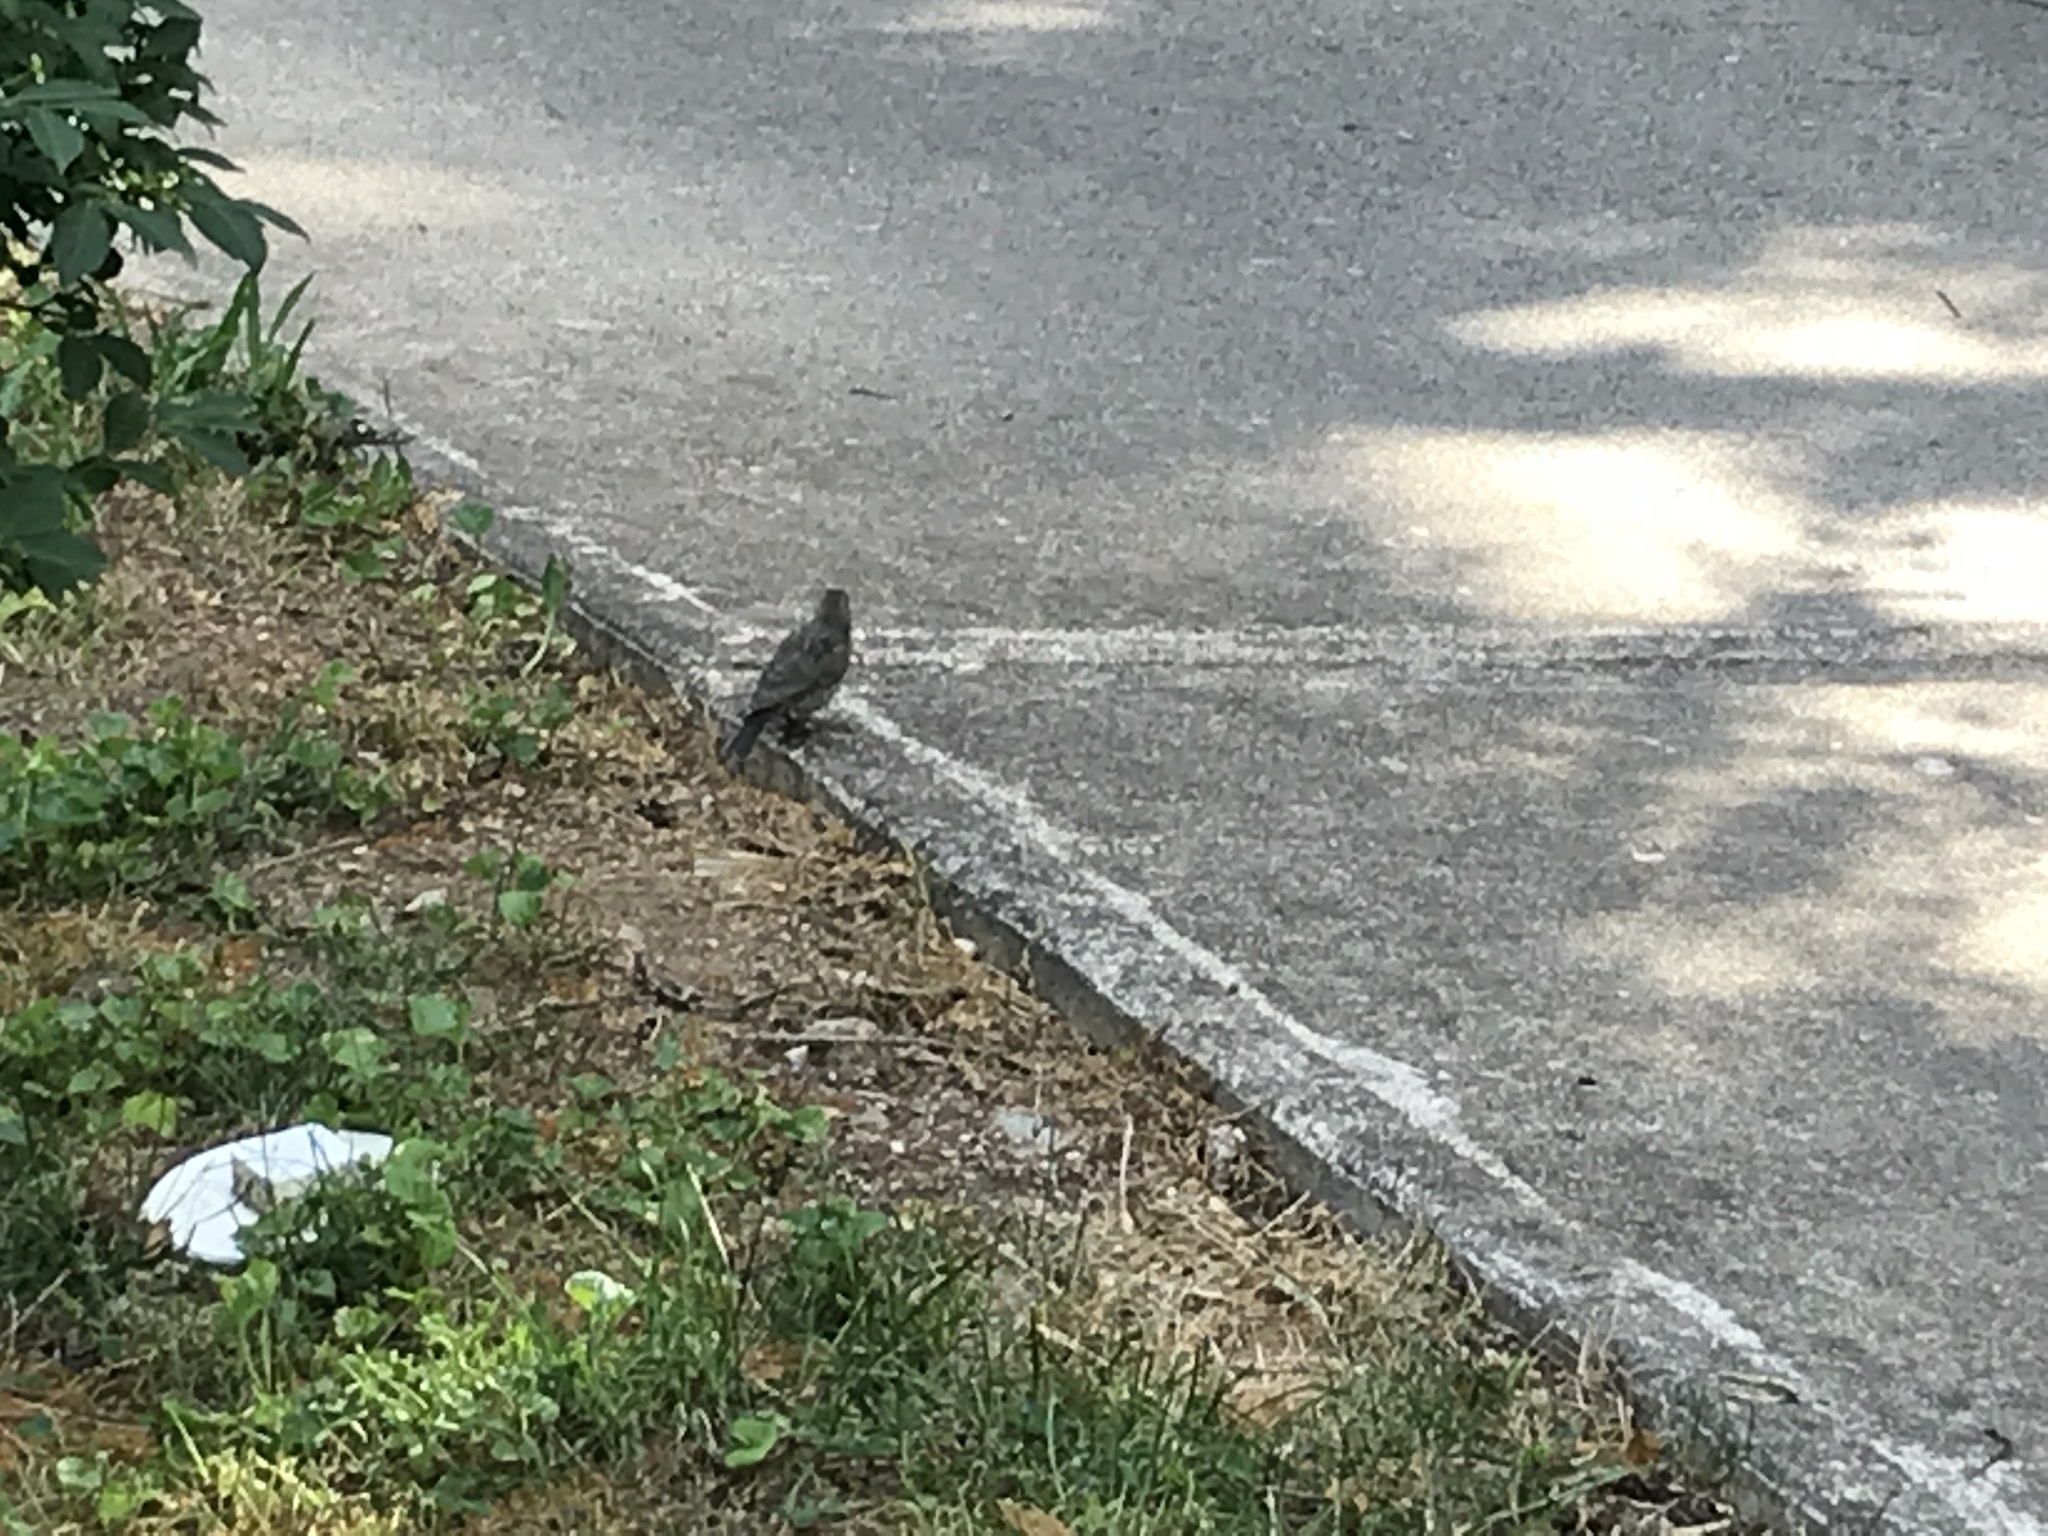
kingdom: Animalia
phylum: Chordata
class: Aves
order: Passeriformes
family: Icteridae
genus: Molothrus
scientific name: Molothrus ater
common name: Brown-headed cowbird
